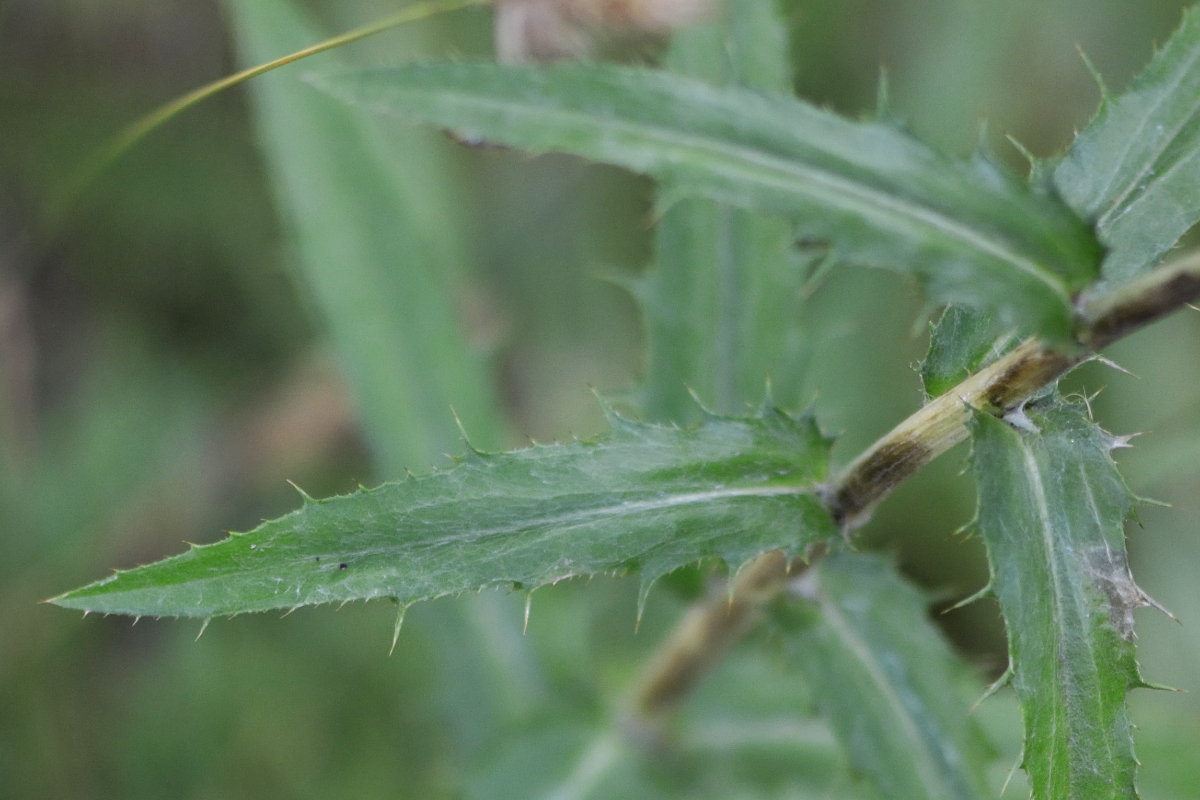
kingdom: Plantae
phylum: Tracheophyta
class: Magnoliopsida
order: Asterales
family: Asteraceae
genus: Carlina
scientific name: Carlina biebersteinii
